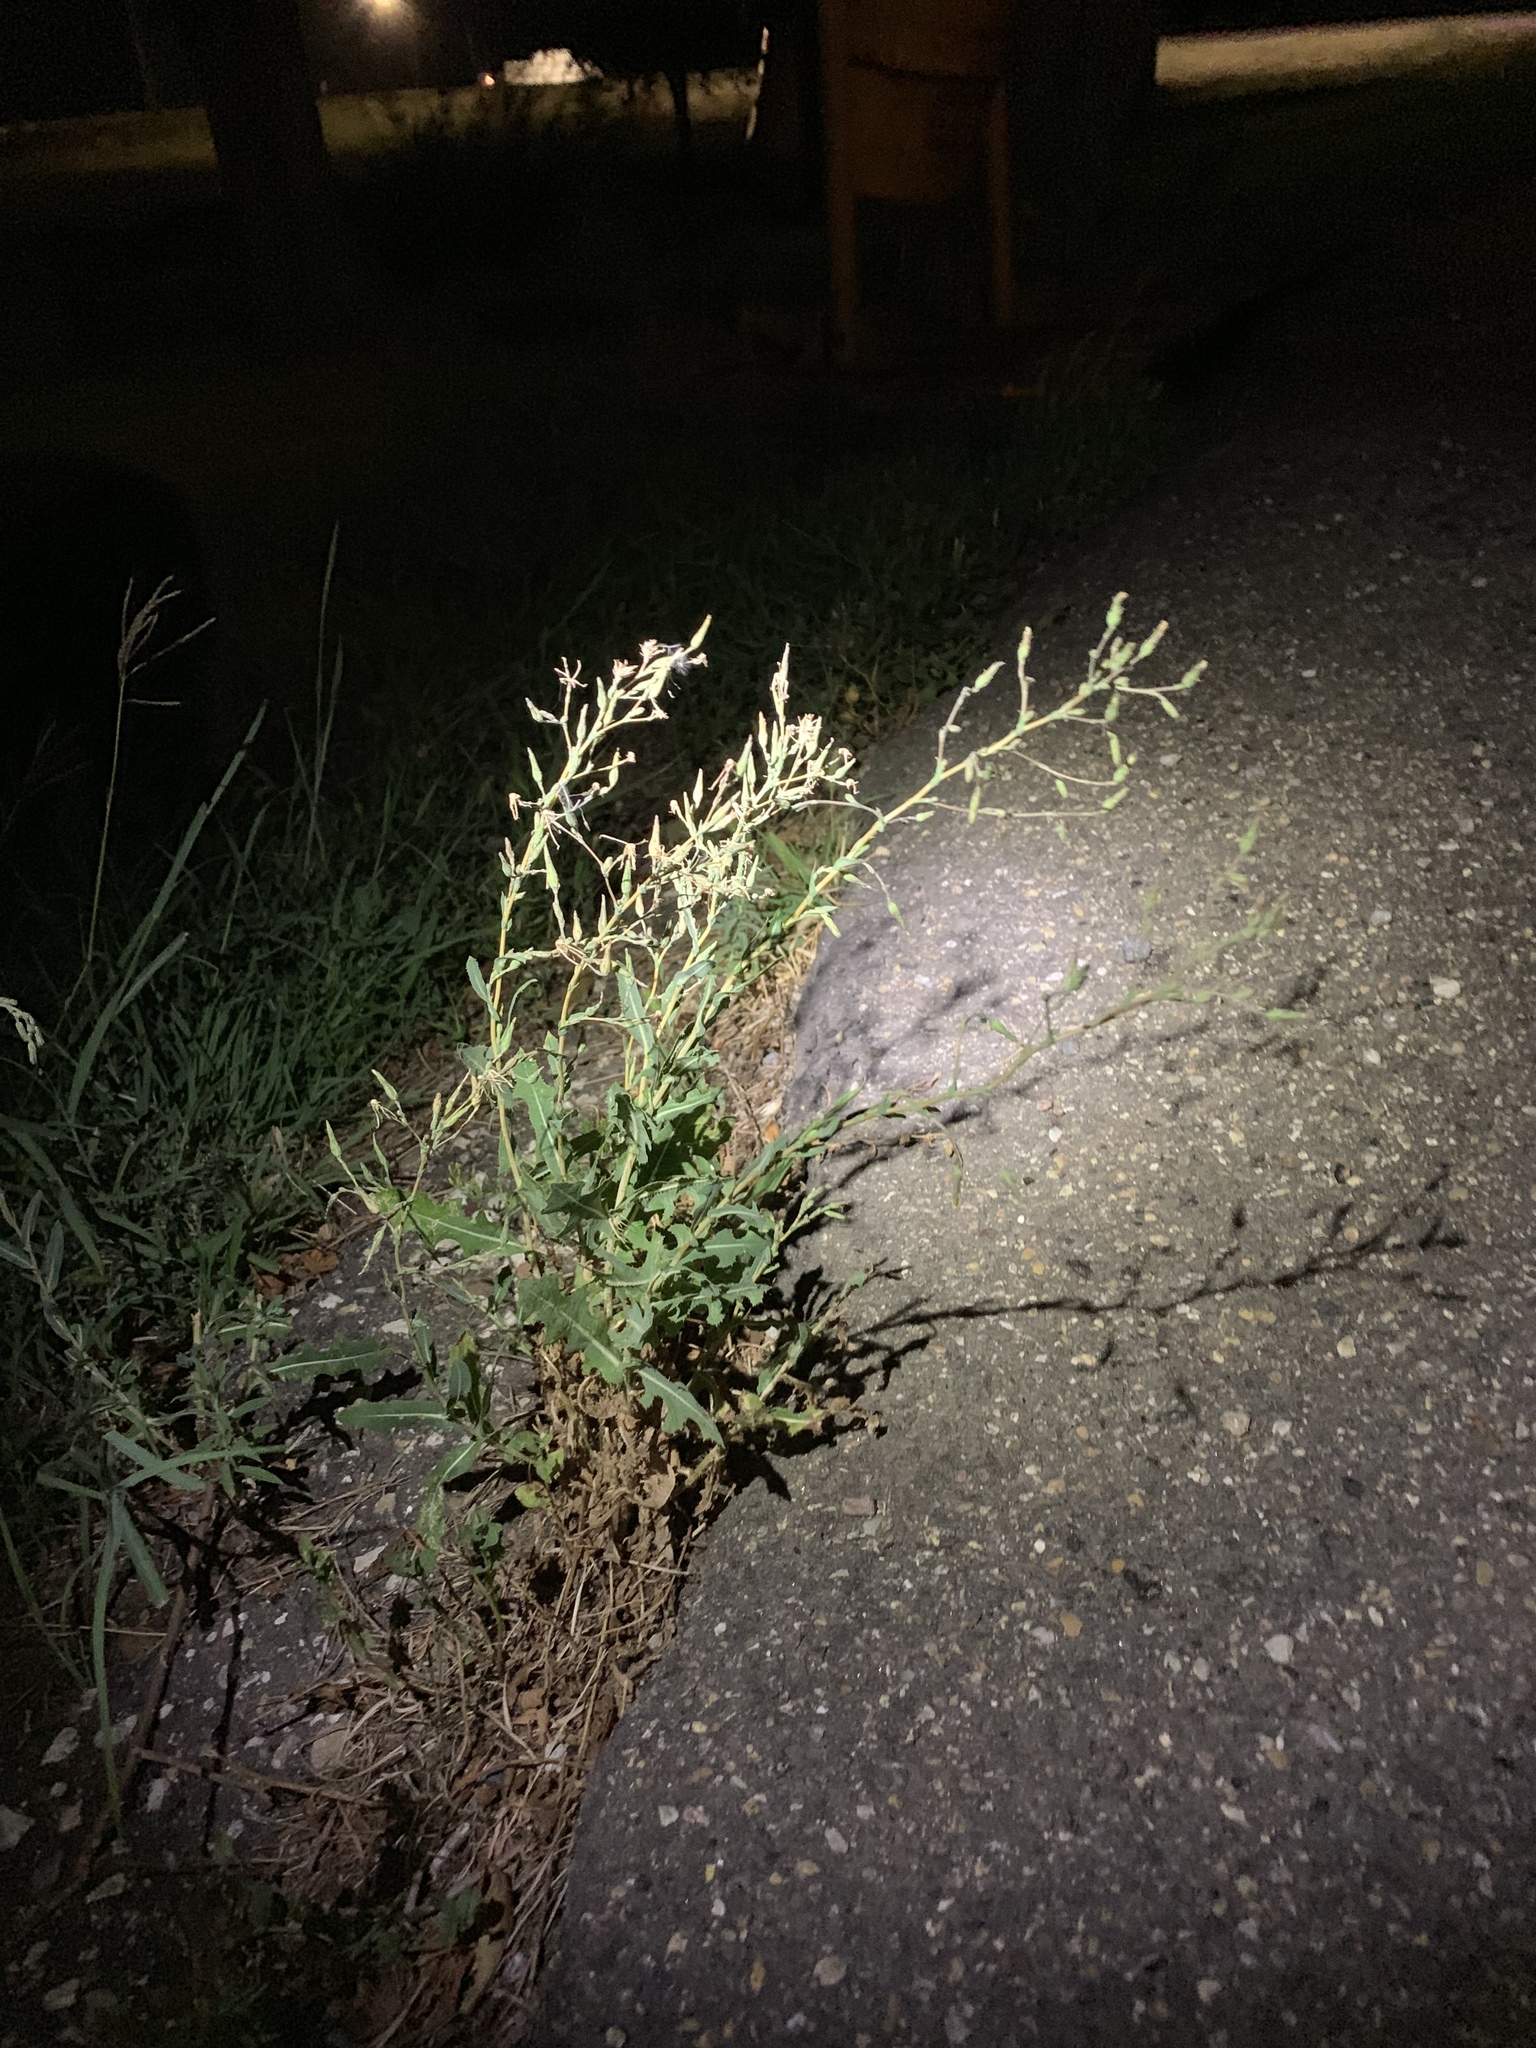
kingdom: Plantae
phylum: Tracheophyta
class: Magnoliopsida
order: Asterales
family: Asteraceae
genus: Lactuca
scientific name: Lactuca serriola
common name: Prickly lettuce
